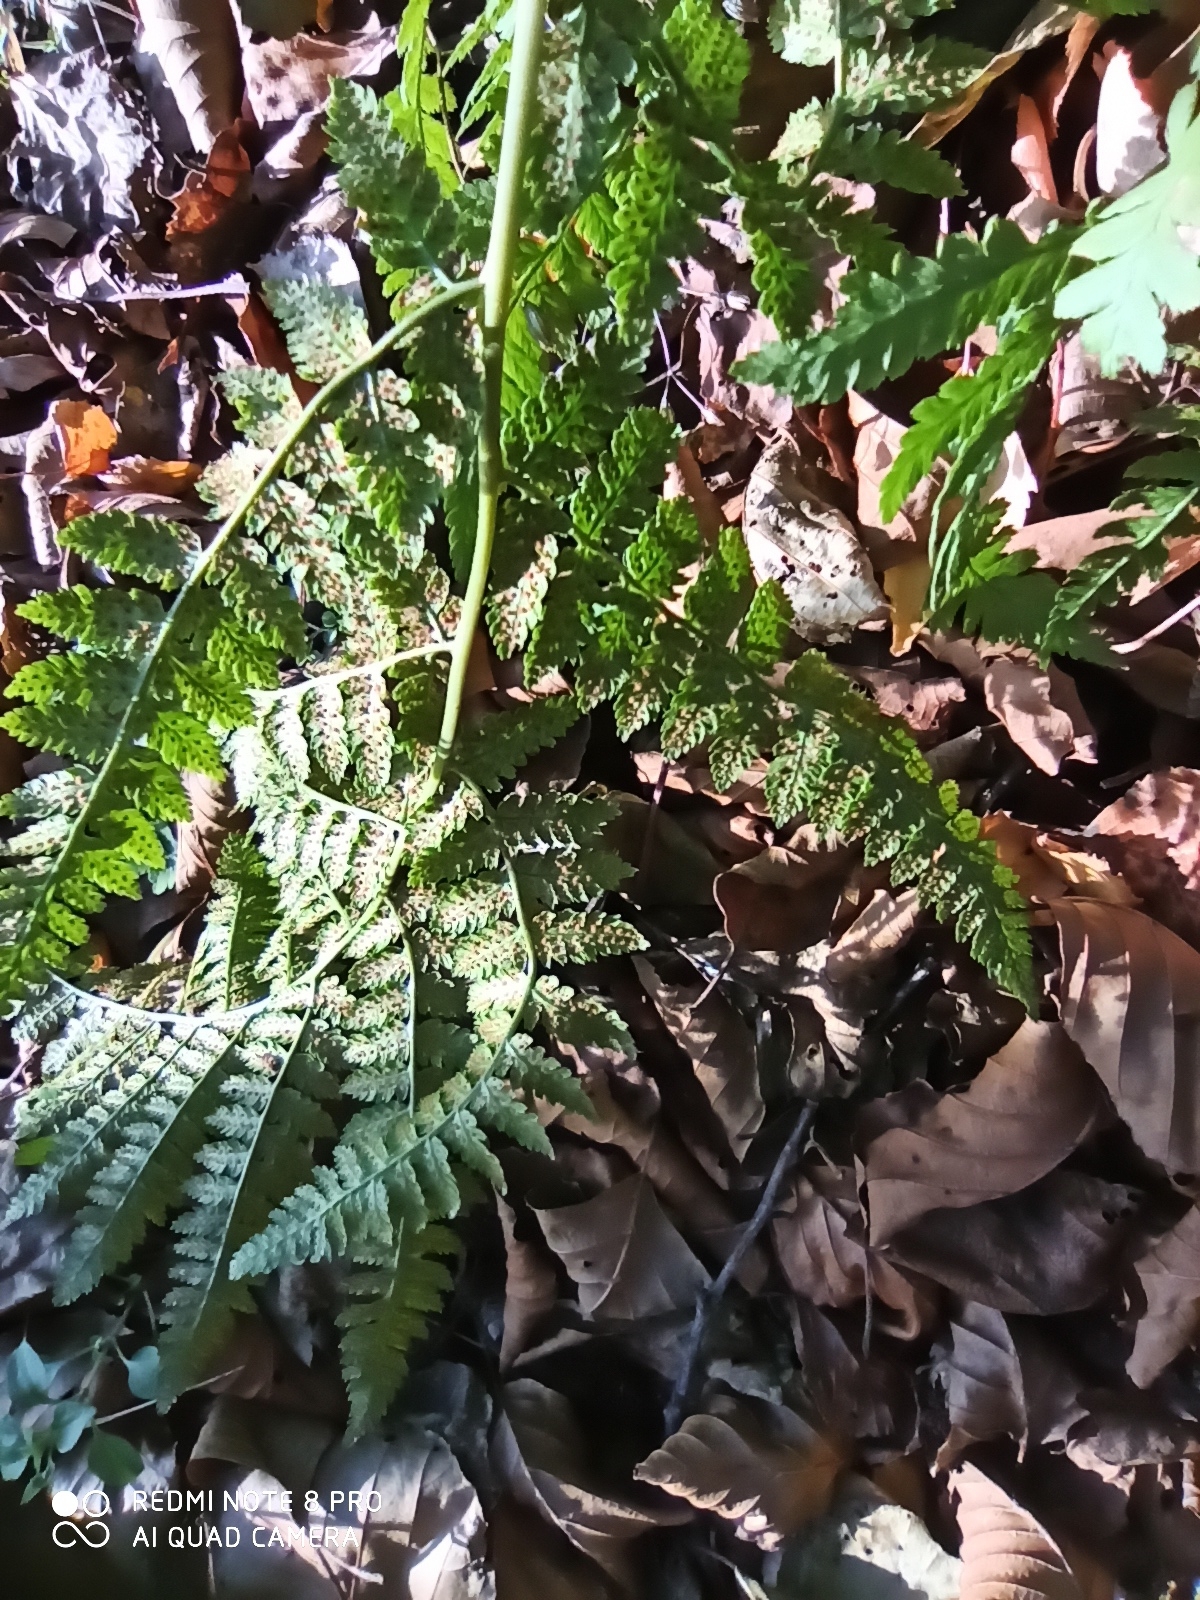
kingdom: Plantae
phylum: Tracheophyta
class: Polypodiopsida
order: Polypodiales
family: Dryopteridaceae
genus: Dryopteris
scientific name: Dryopteris carthusiana
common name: Narrow buckler-fern
